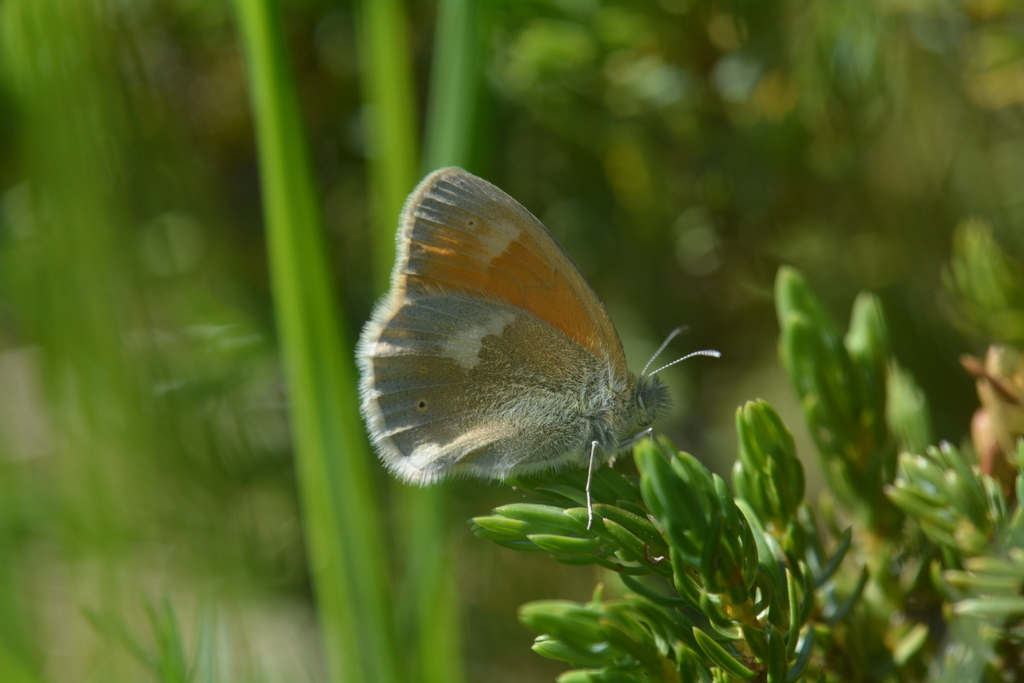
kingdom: Animalia
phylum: Arthropoda
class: Insecta
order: Lepidoptera
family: Nymphalidae
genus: Coenonympha
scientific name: Coenonympha tullia
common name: Large heath
